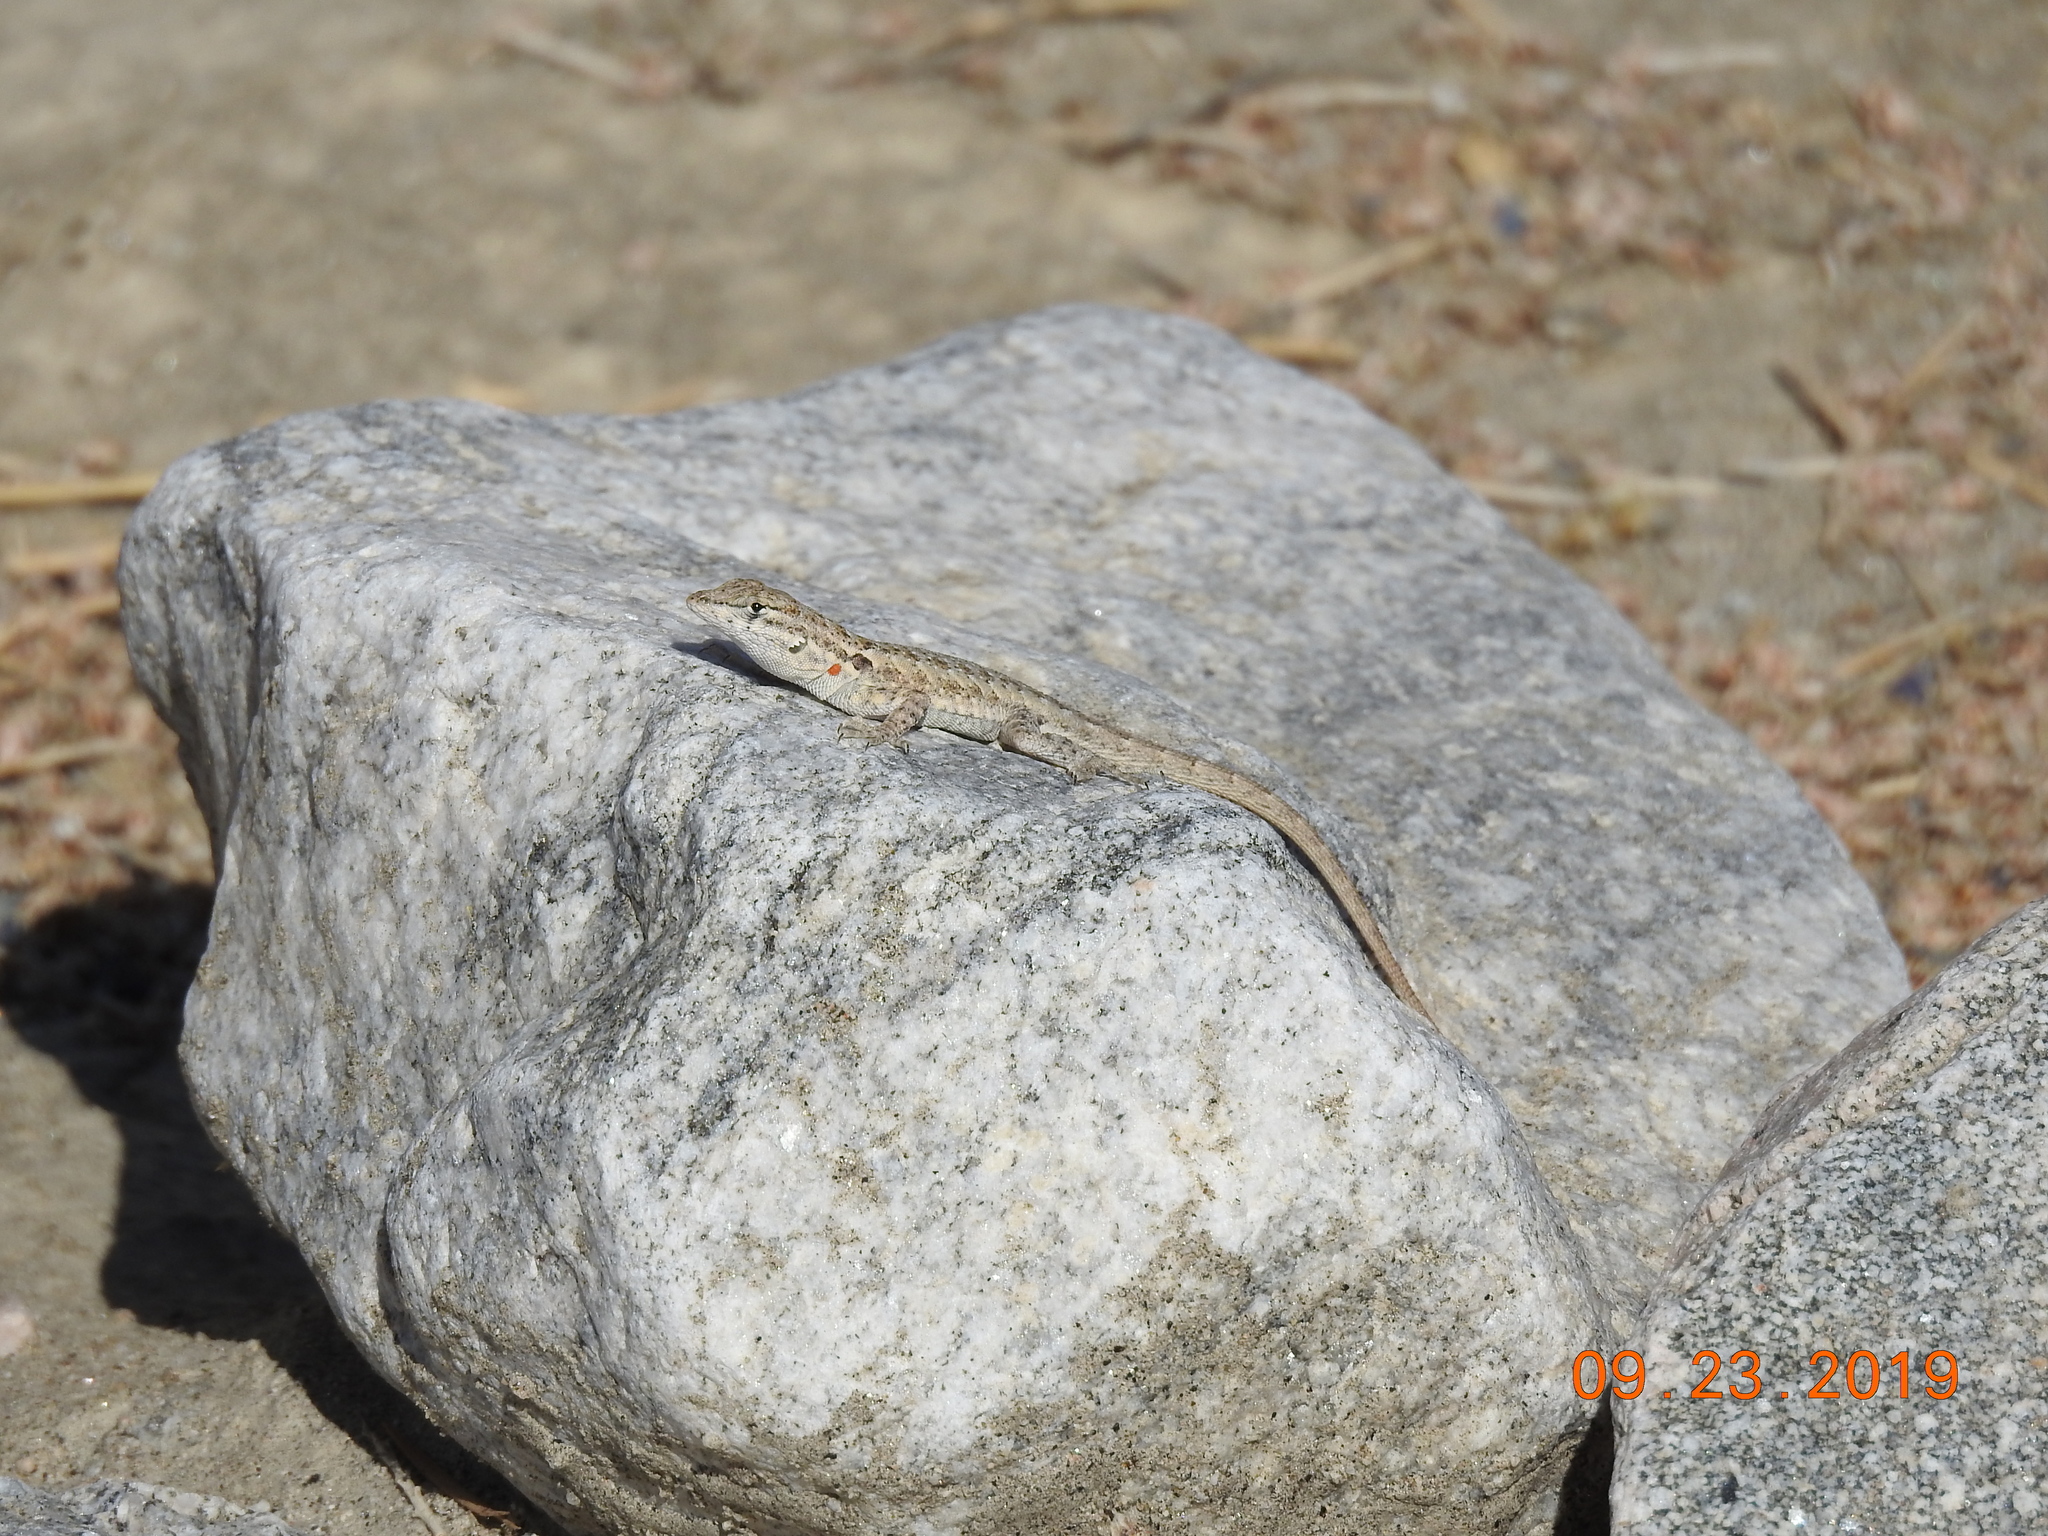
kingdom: Animalia
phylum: Chordata
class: Squamata
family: Phrynosomatidae
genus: Uta
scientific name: Uta stansburiana
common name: Side-blotched lizard
